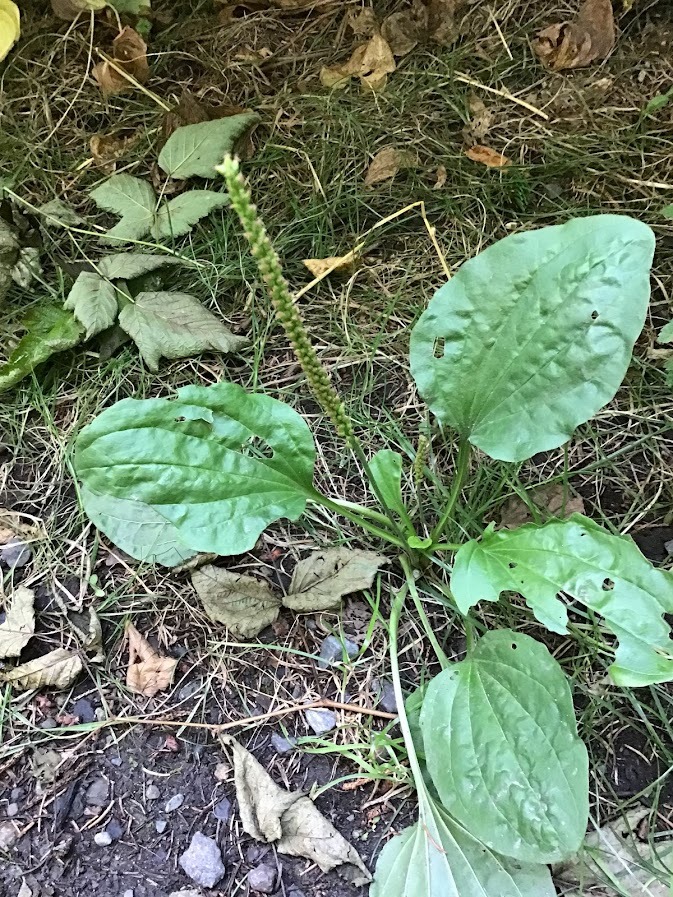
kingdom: Plantae
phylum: Tracheophyta
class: Magnoliopsida
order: Lamiales
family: Plantaginaceae
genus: Plantago
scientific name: Plantago major
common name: Common plantain
